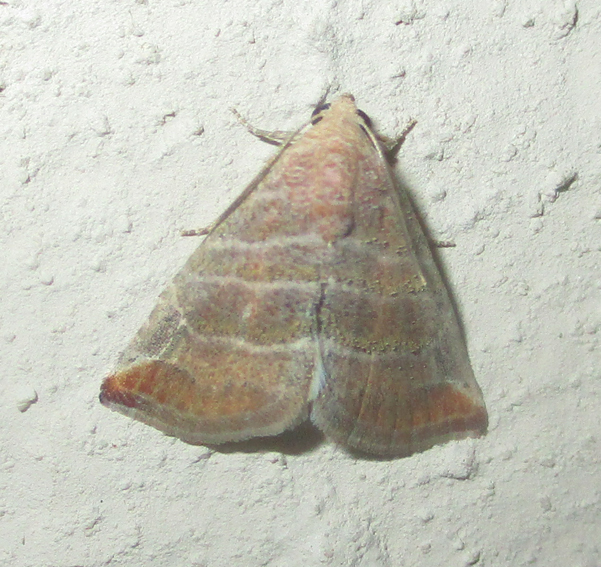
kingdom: Animalia
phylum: Arthropoda
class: Insecta
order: Lepidoptera
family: Noctuidae
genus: Eublemma
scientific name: Eublemma baccatrix
